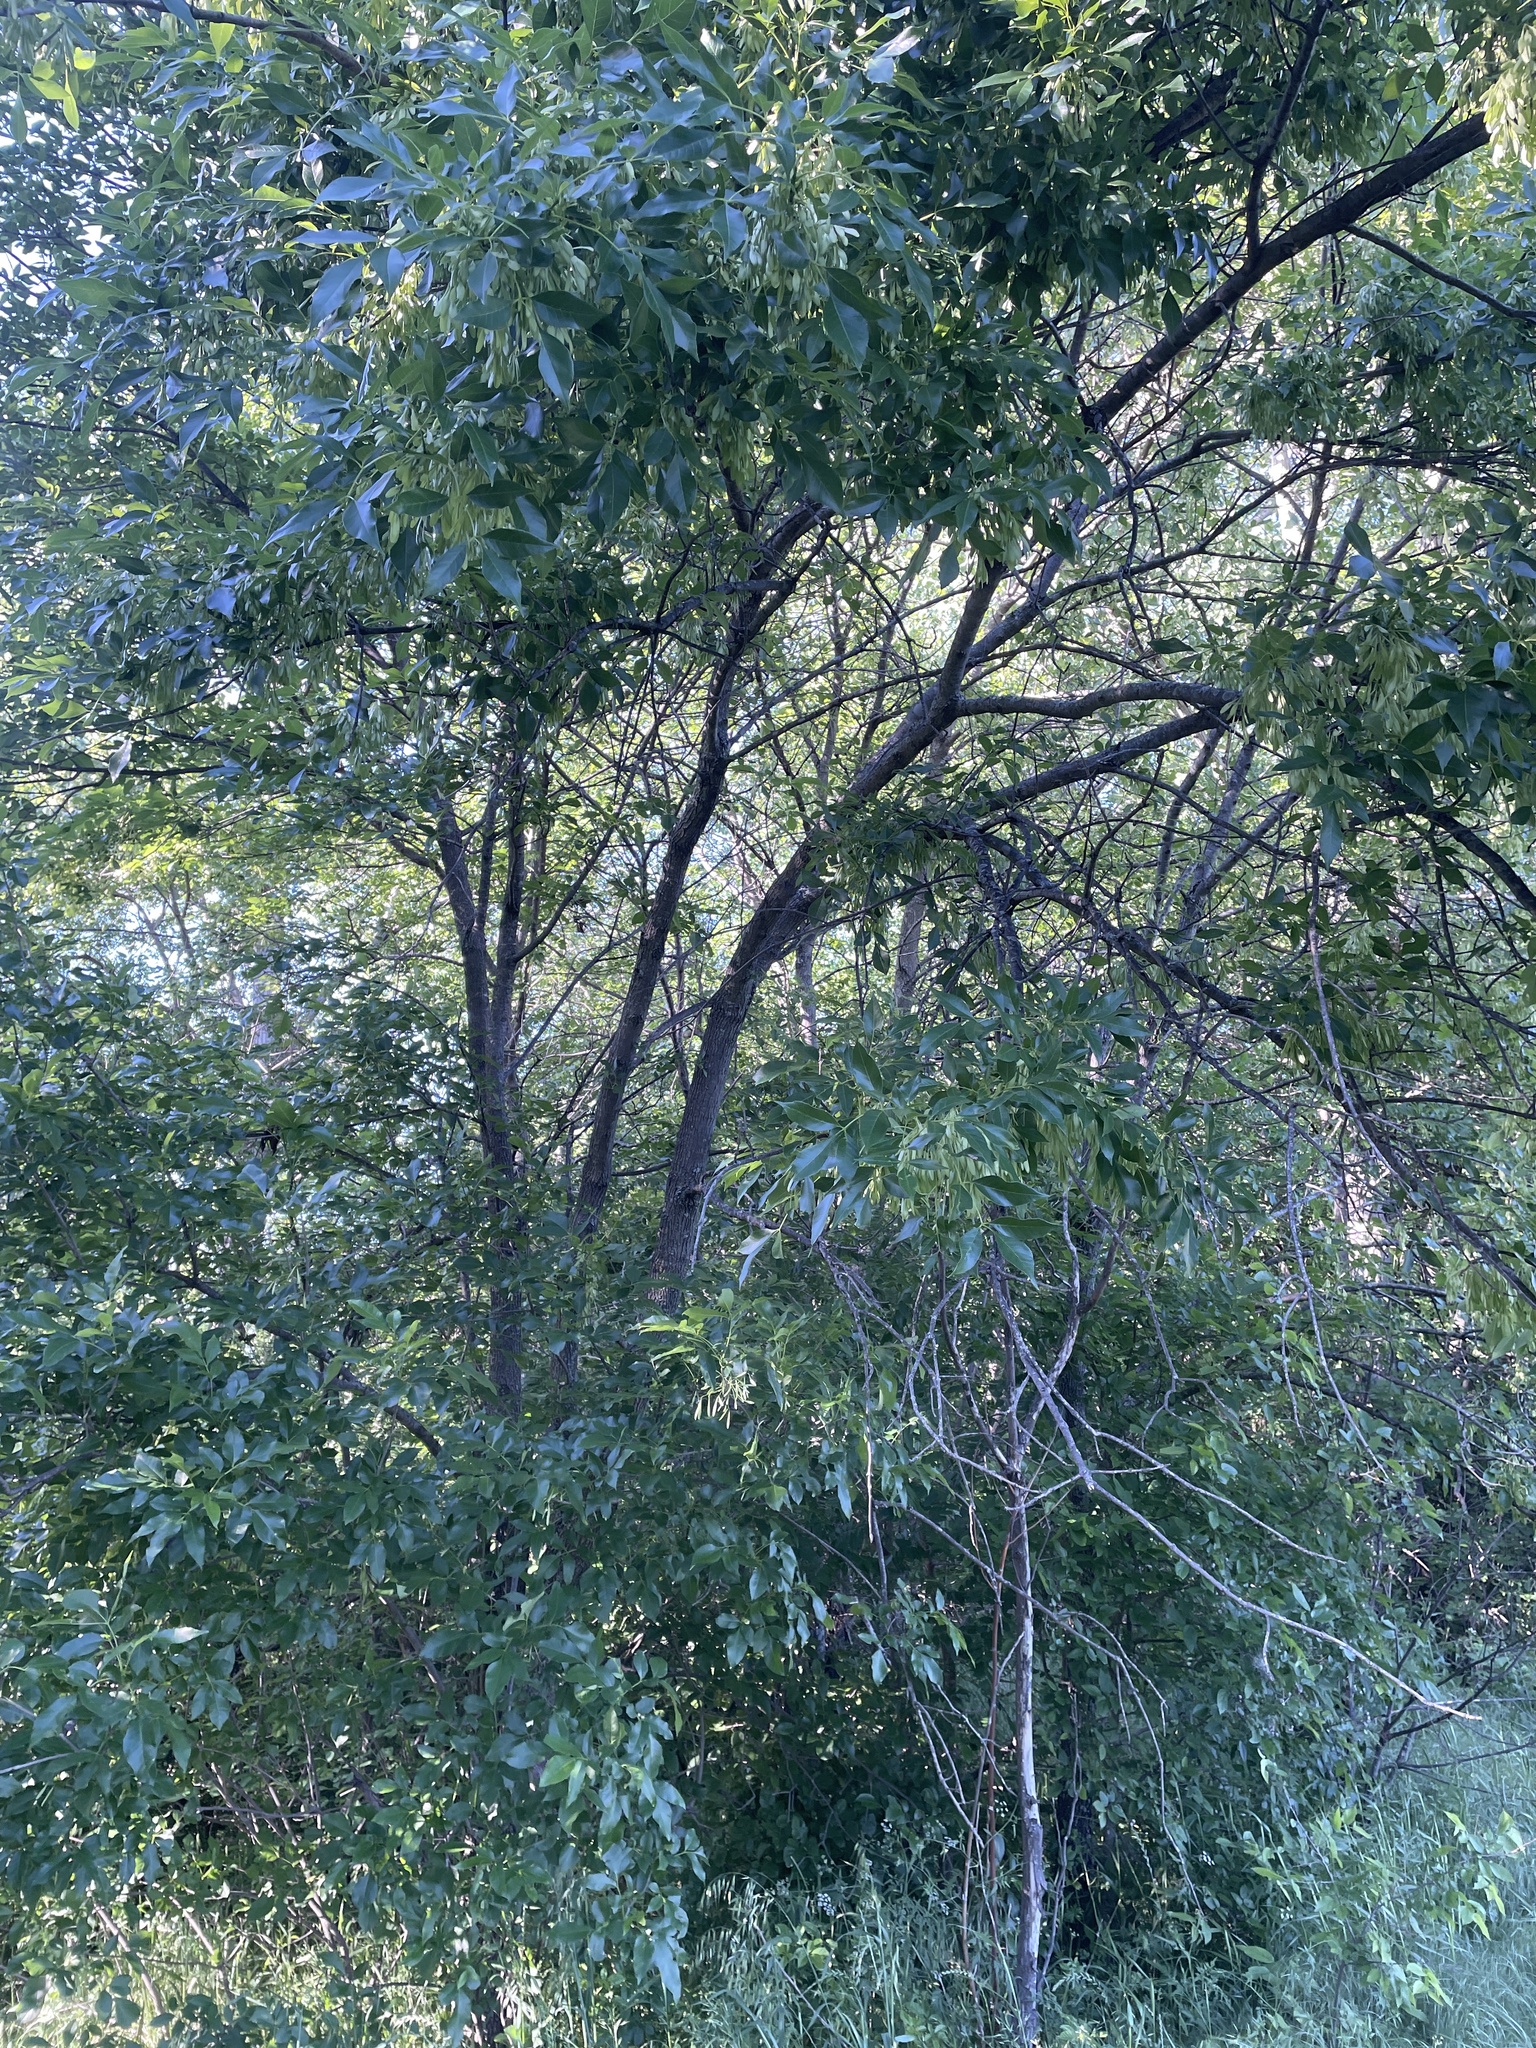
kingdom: Plantae
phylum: Tracheophyta
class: Magnoliopsida
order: Lamiales
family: Oleaceae
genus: Fraxinus
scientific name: Fraxinus pennsylvanica
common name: Green ash
